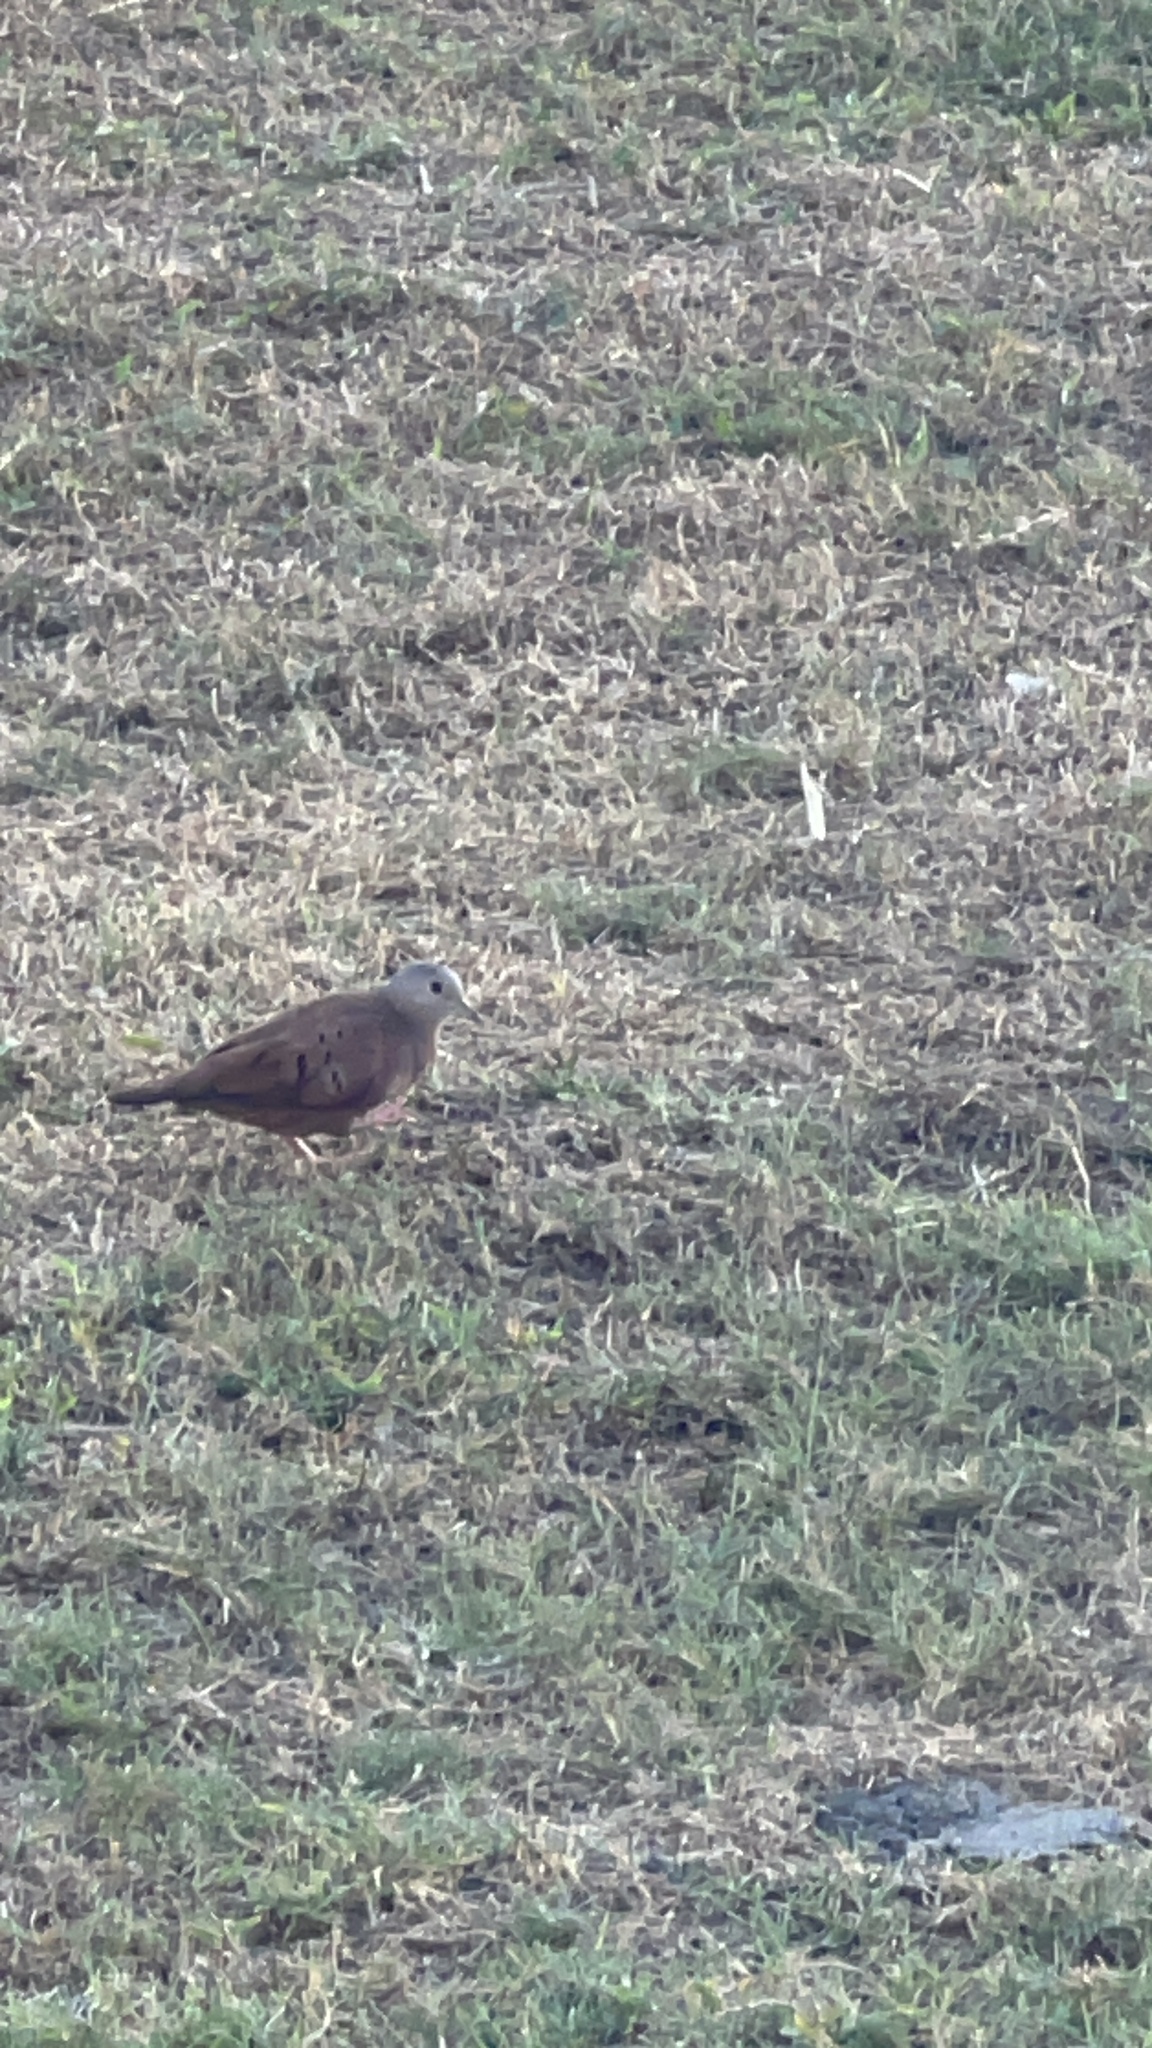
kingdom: Animalia
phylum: Chordata
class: Aves
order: Columbiformes
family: Columbidae
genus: Columbina
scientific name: Columbina talpacoti
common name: Ruddy ground dove
